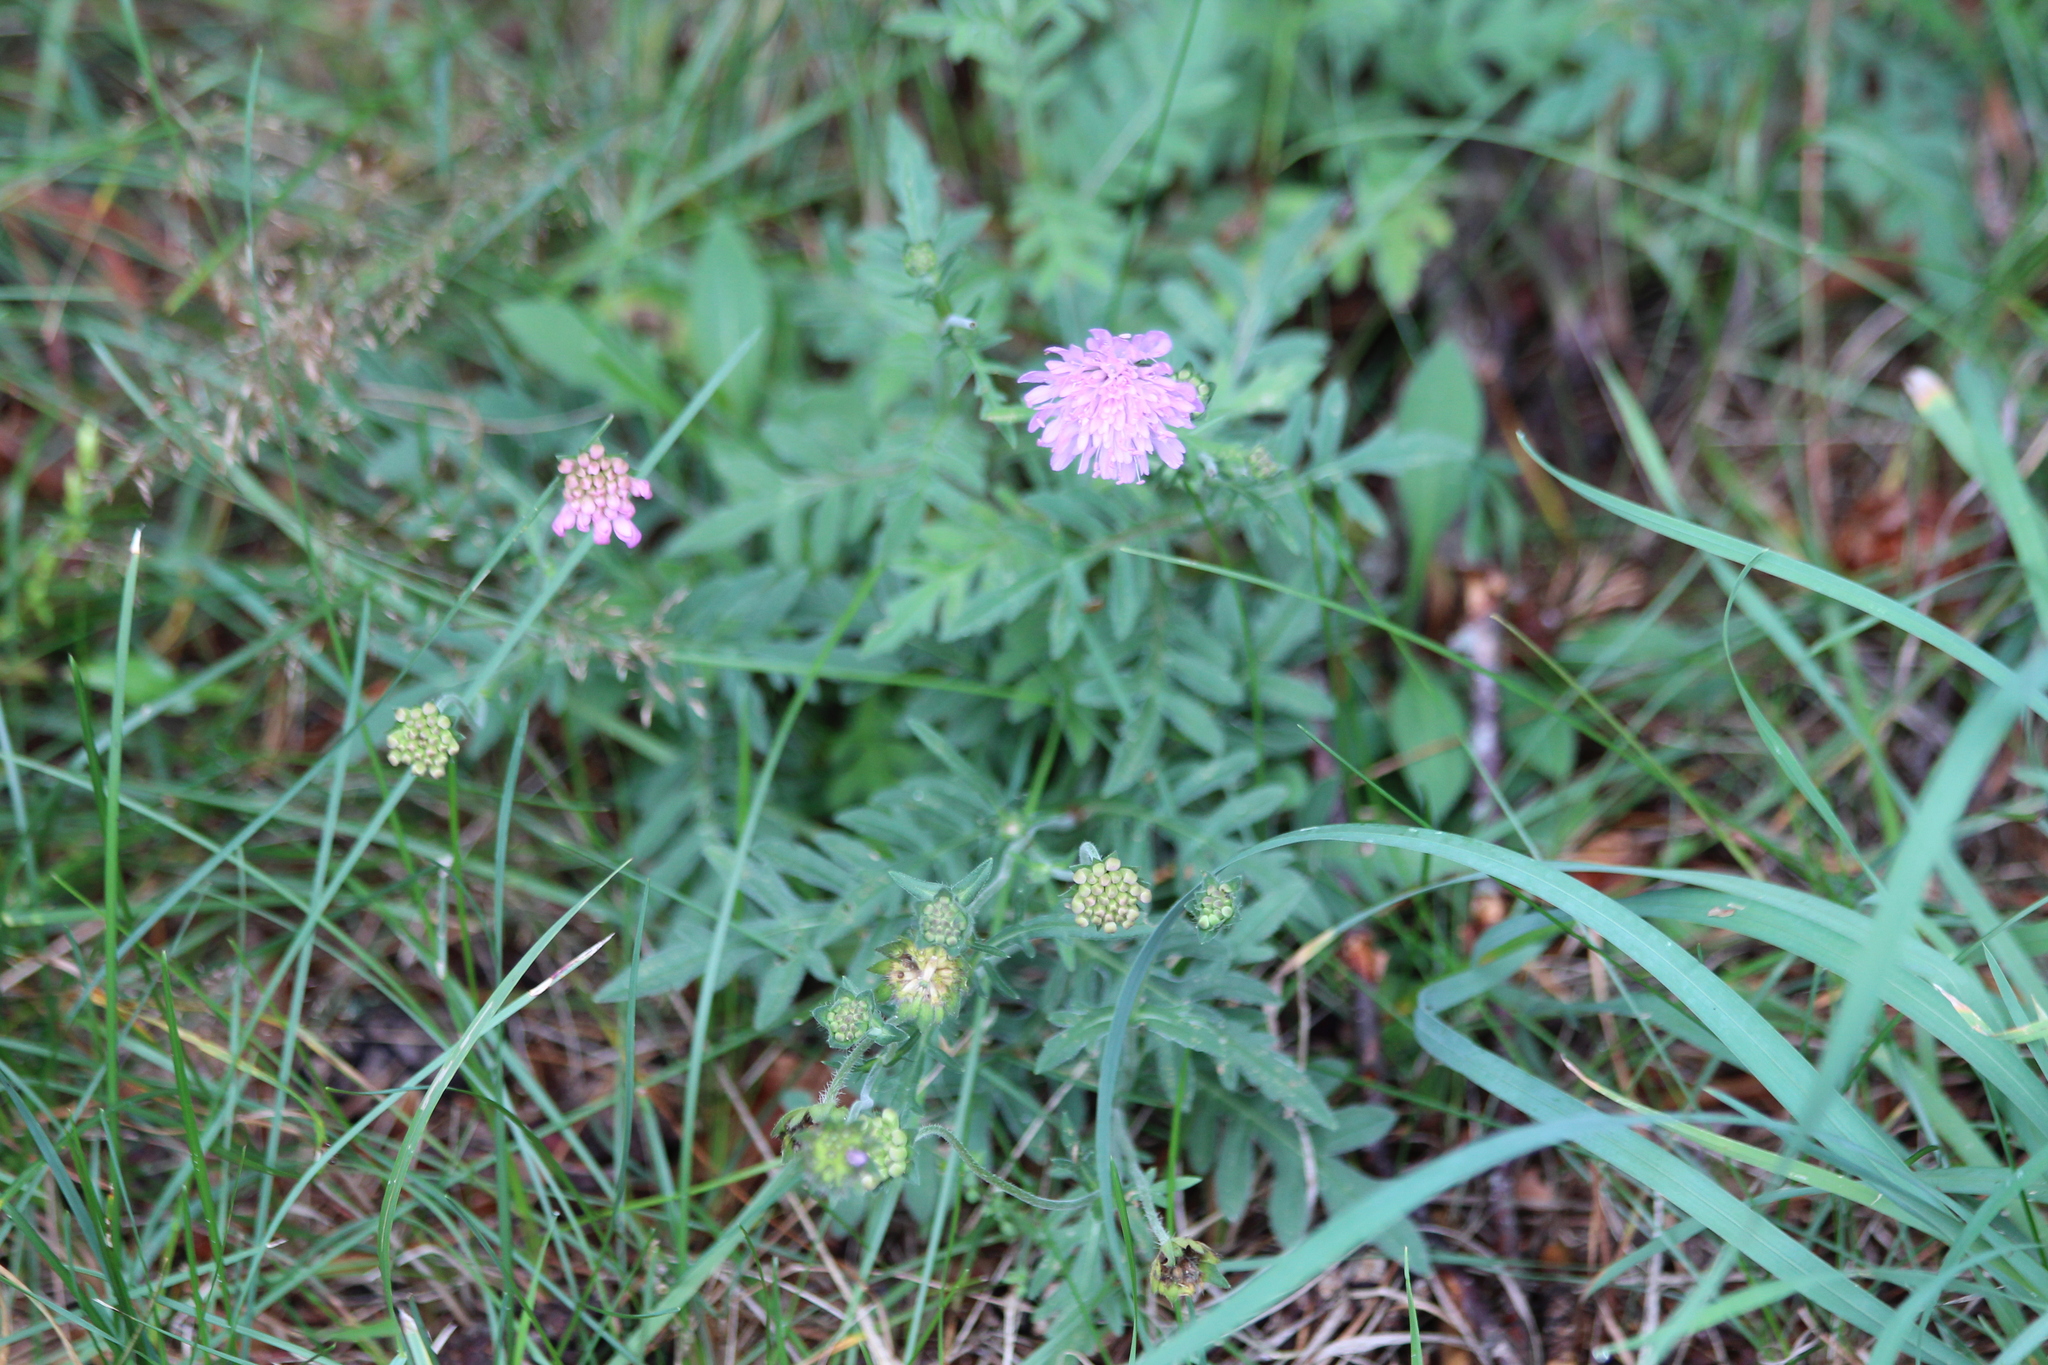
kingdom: Plantae
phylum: Tracheophyta
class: Magnoliopsida
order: Dipsacales
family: Caprifoliaceae
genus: Knautia
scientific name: Knautia arvensis
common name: Field scabiosa
